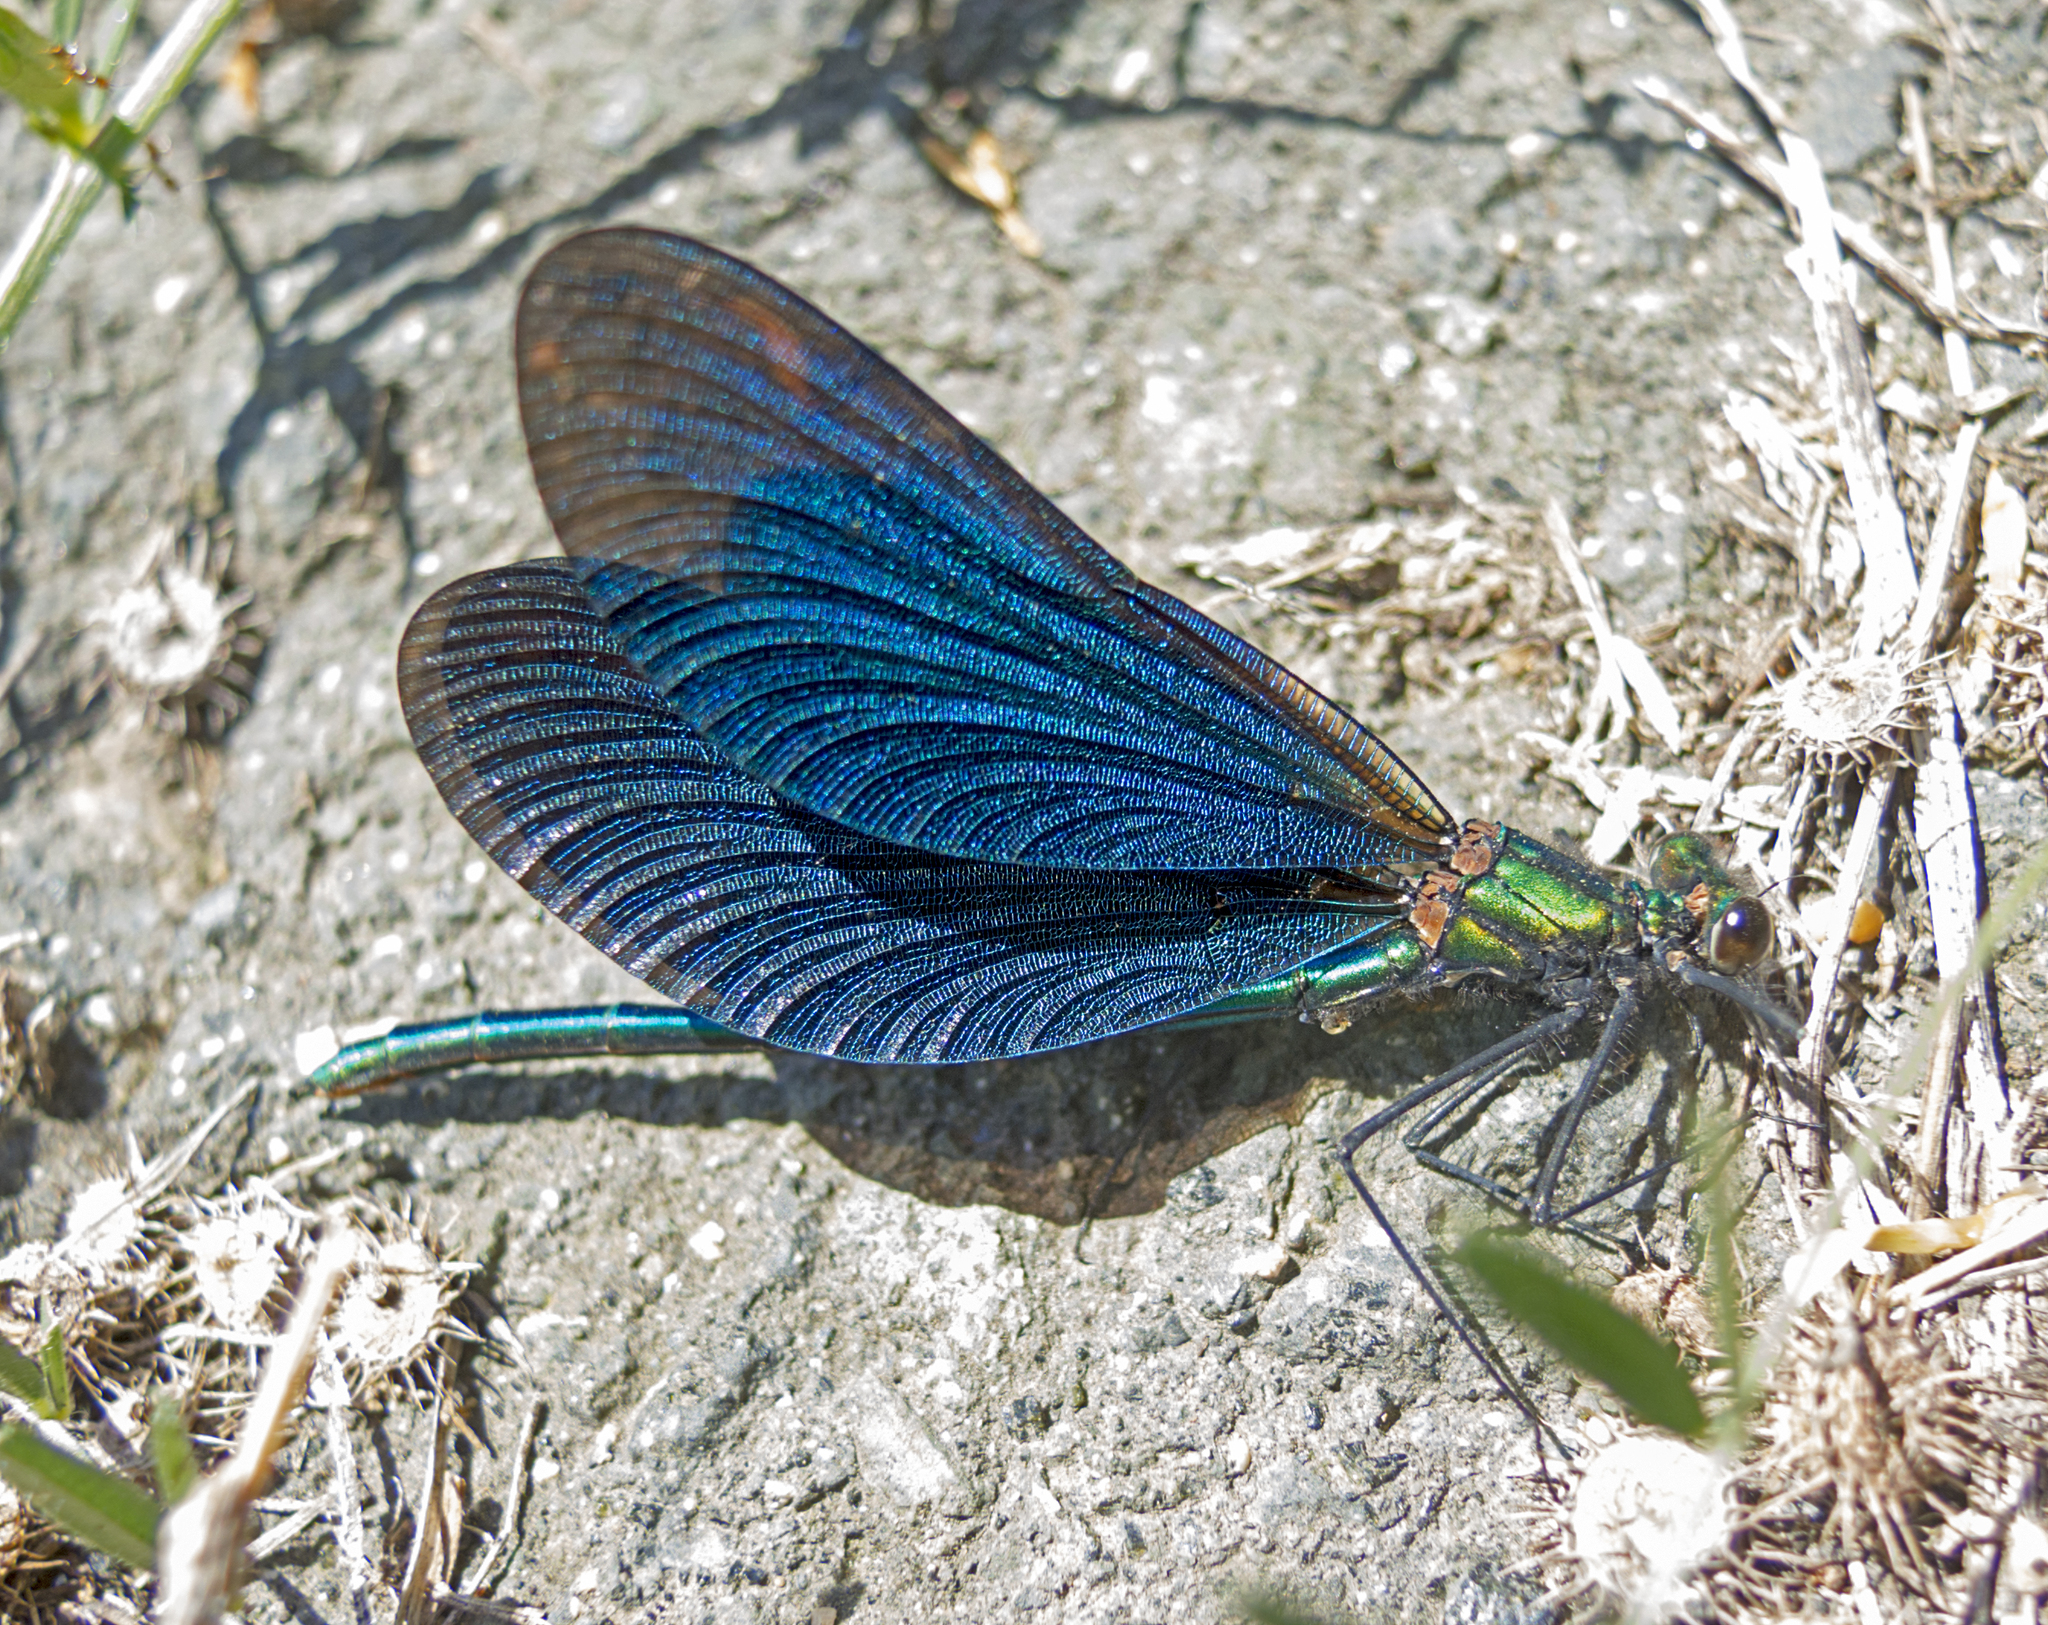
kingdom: Animalia
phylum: Arthropoda
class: Insecta
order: Odonata
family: Calopterygidae
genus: Calopteryx
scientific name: Calopteryx virgo
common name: Beautiful demoiselle
